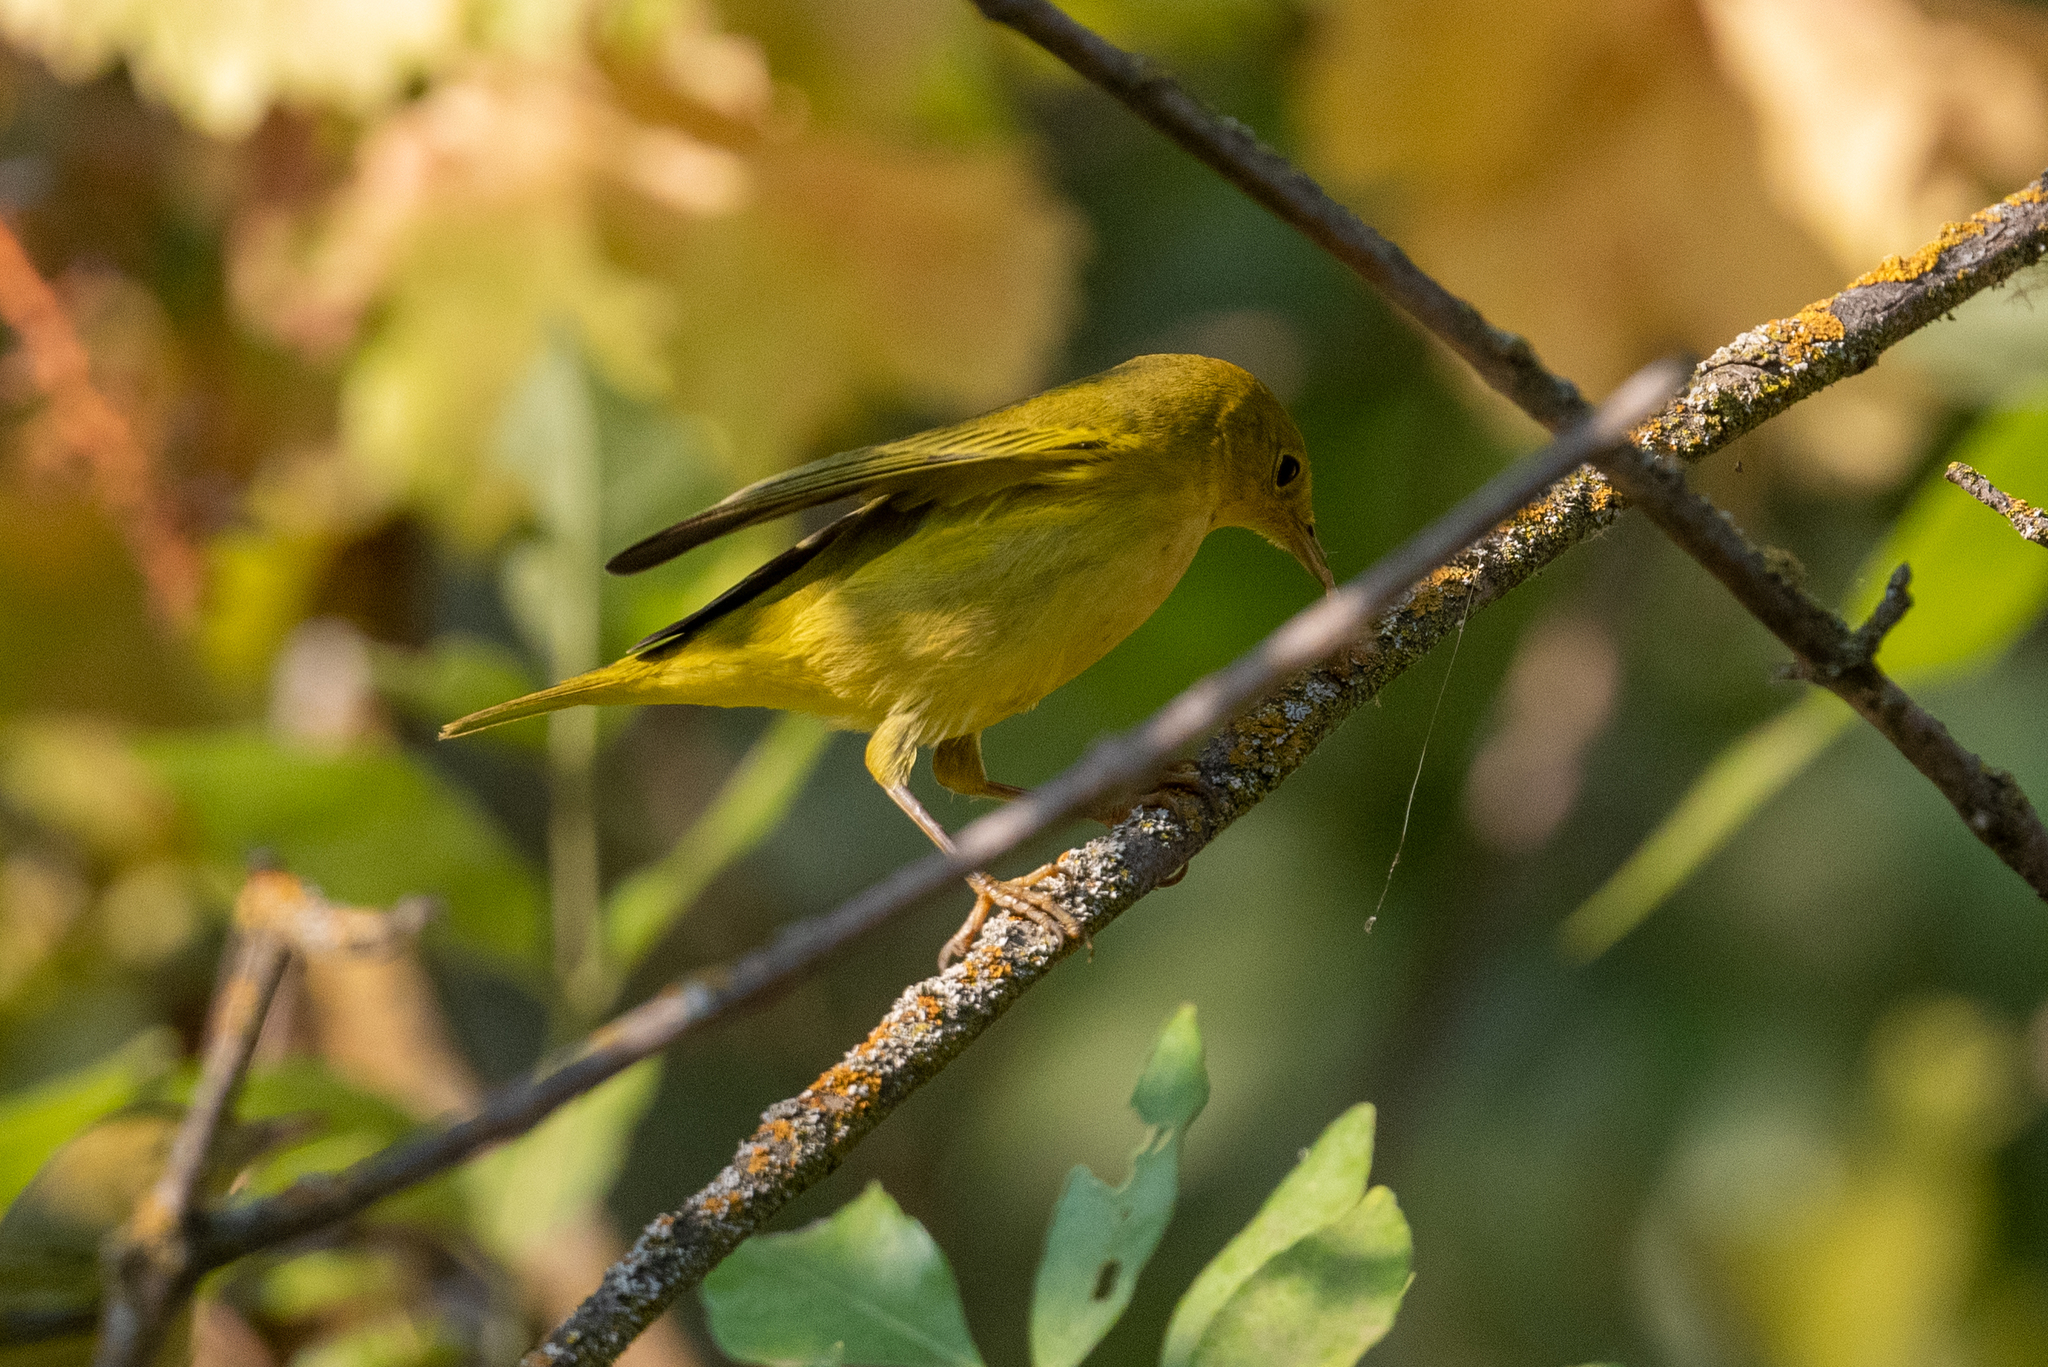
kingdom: Animalia
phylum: Chordata
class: Aves
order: Passeriformes
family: Parulidae
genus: Setophaga
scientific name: Setophaga petechia
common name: Yellow warbler
